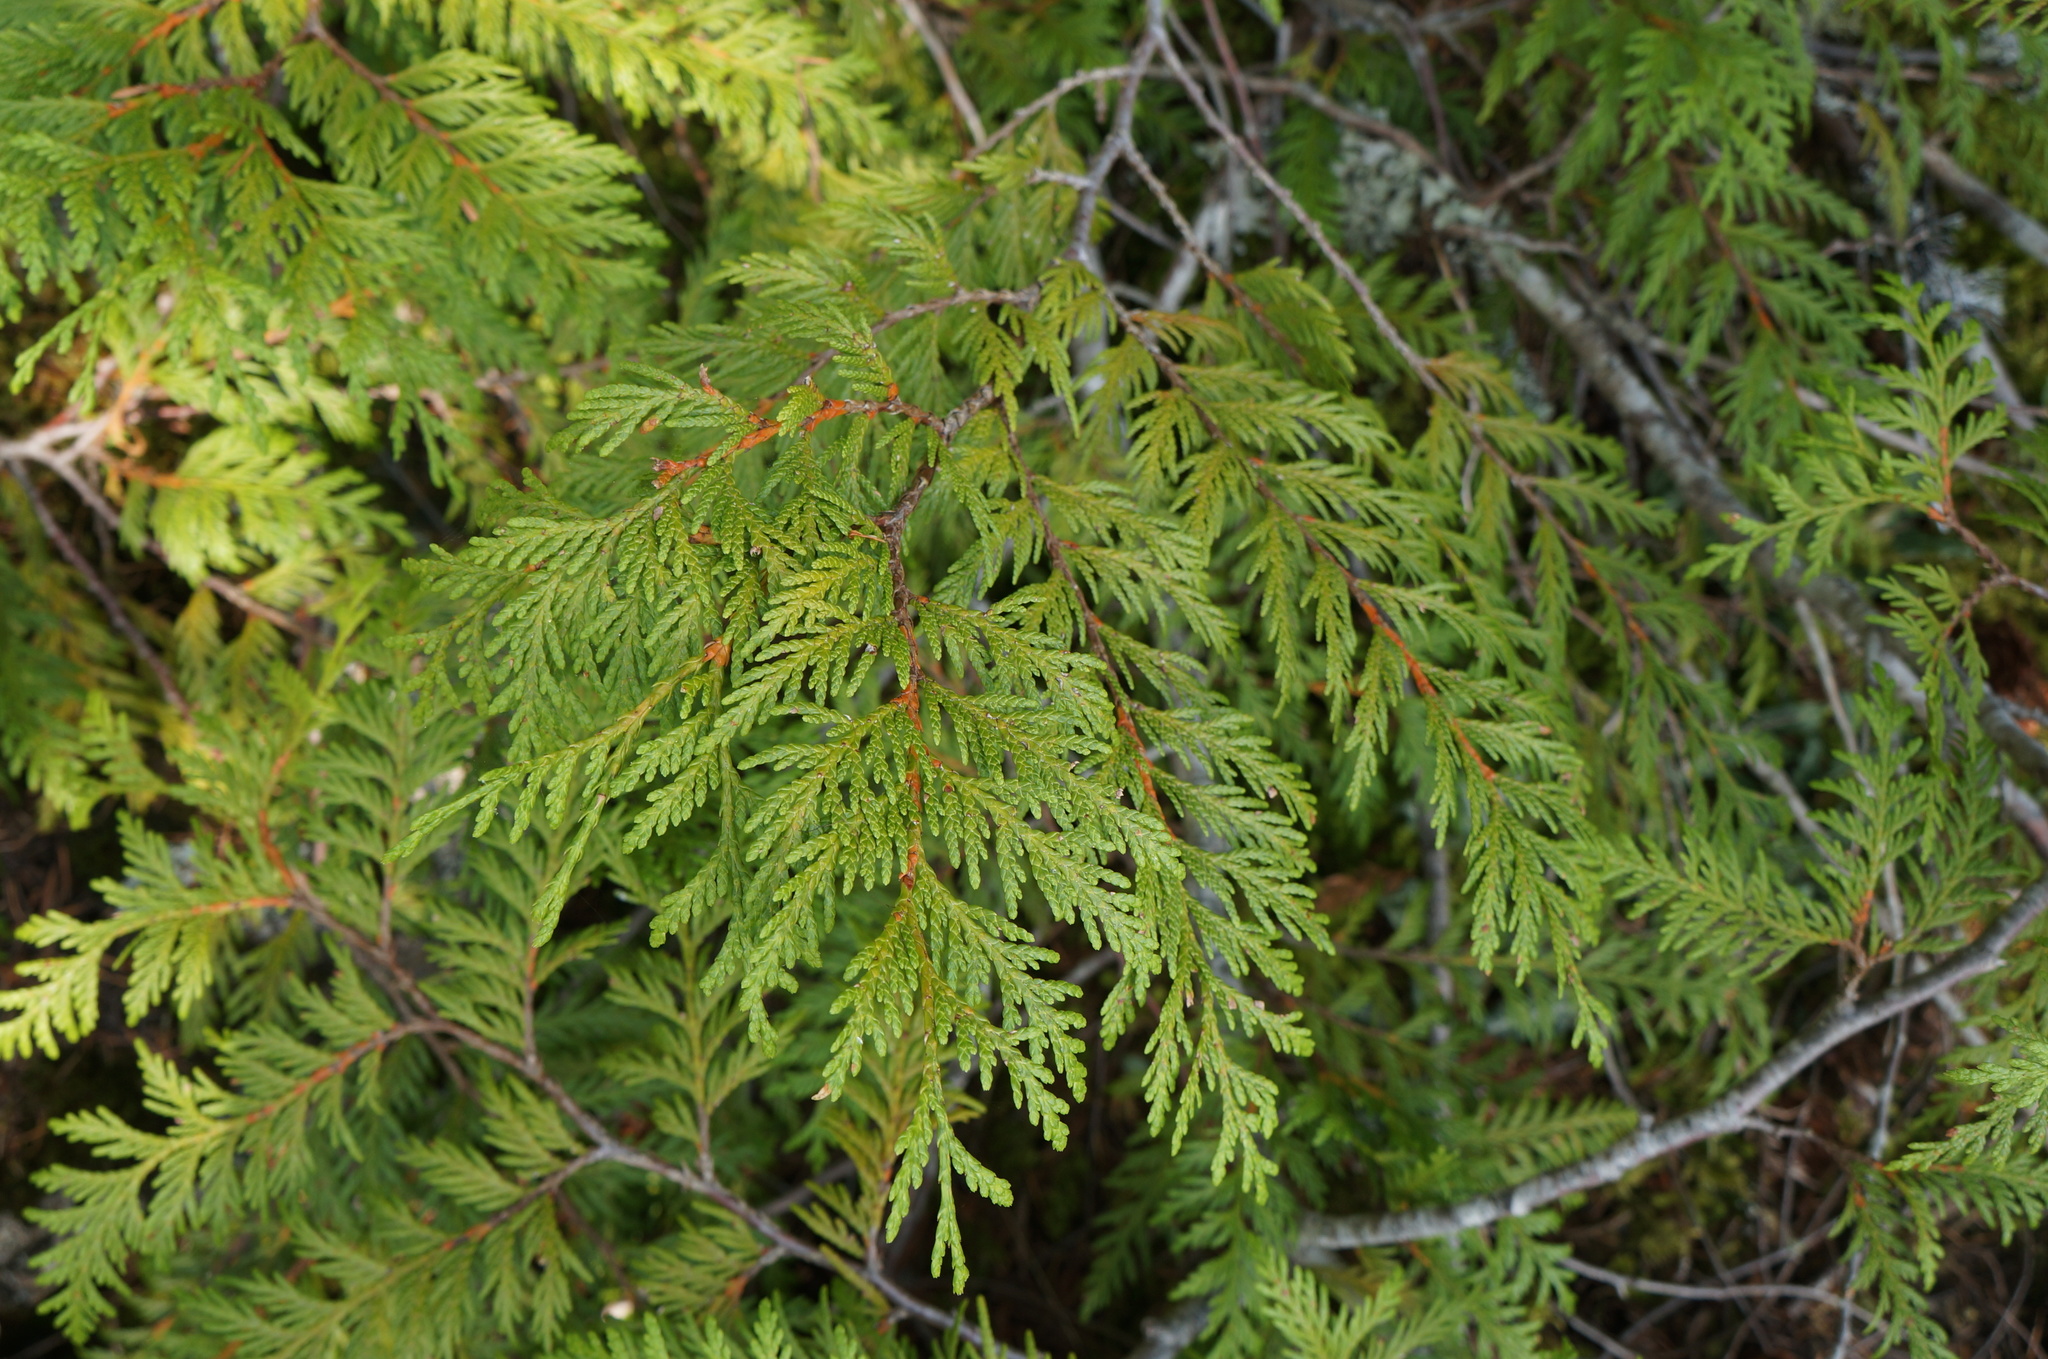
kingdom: Plantae
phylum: Tracheophyta
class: Pinopsida
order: Pinales
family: Cupressaceae
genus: Thuja
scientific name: Thuja plicata
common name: Western red-cedar
